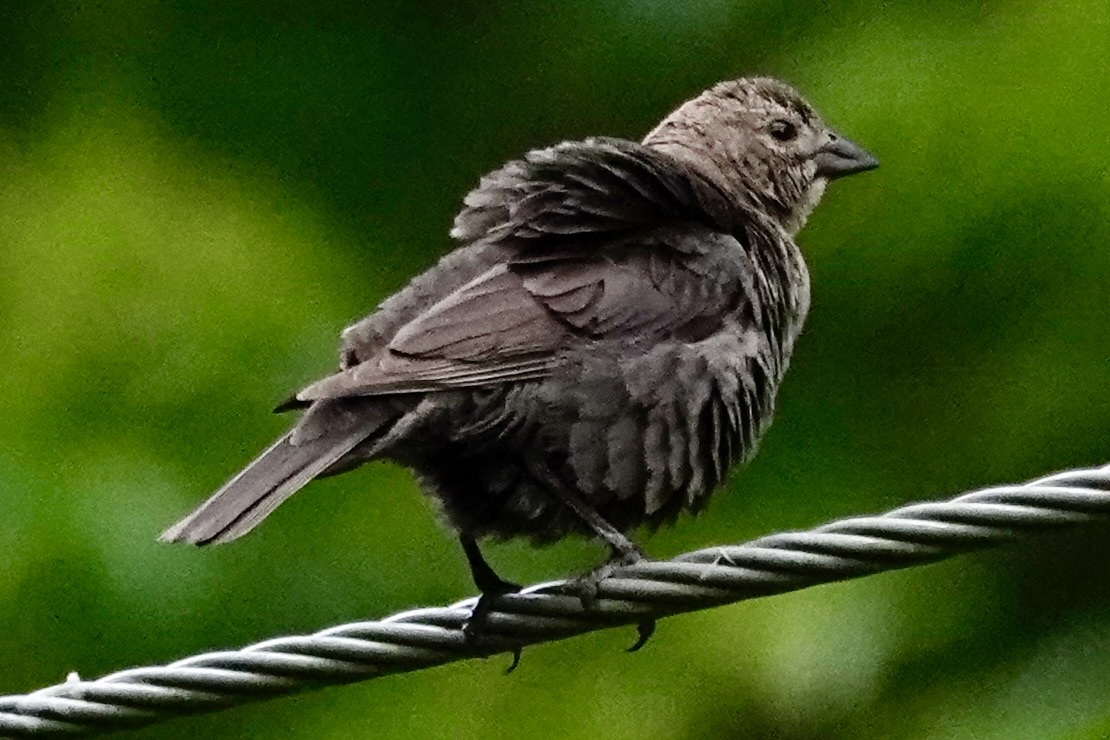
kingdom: Animalia
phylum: Chordata
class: Aves
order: Passeriformes
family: Icteridae
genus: Molothrus
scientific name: Molothrus ater
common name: Brown-headed cowbird
